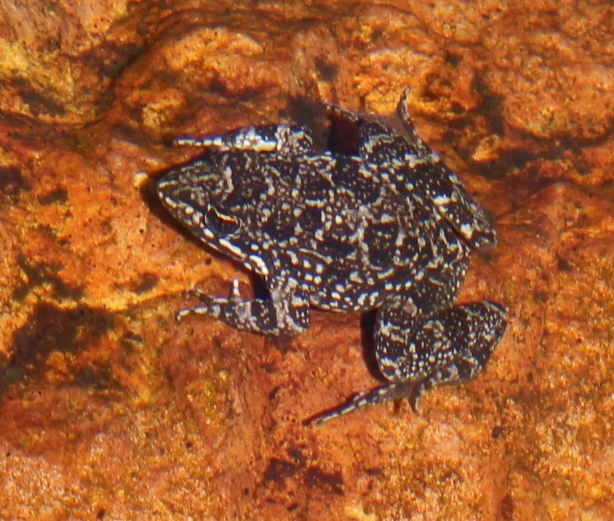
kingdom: Animalia
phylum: Chordata
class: Amphibia
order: Anura
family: Pyxicephalidae
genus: Amietia
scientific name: Amietia fuscigula
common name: Cape rana
